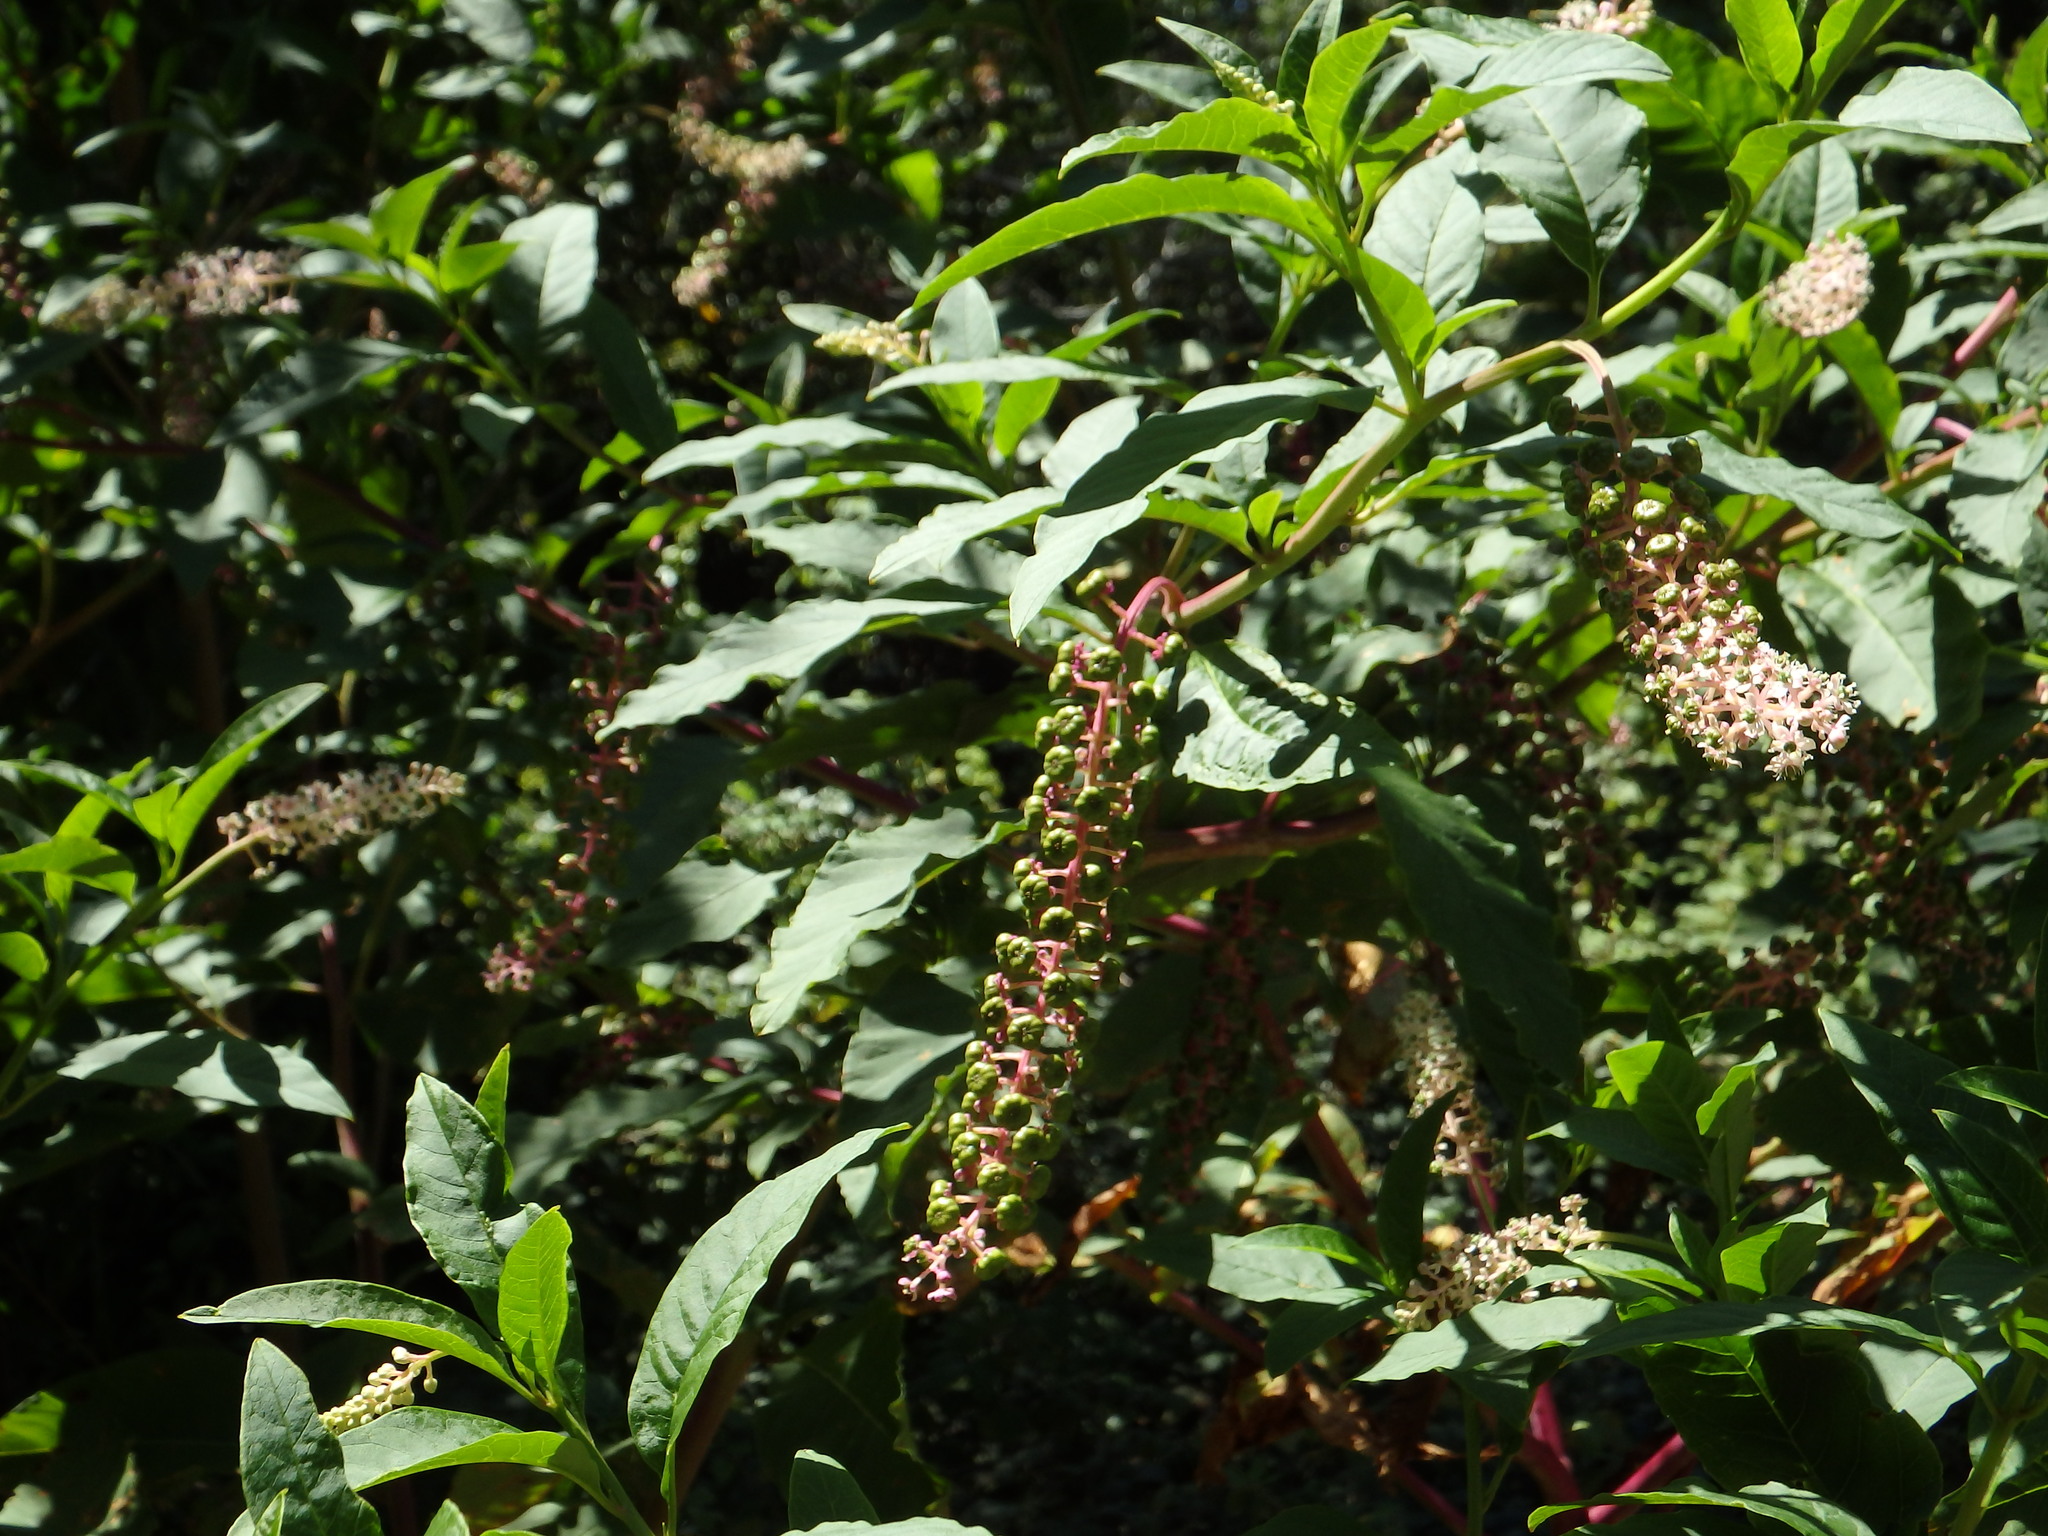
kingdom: Plantae
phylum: Tracheophyta
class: Magnoliopsida
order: Caryophyllales
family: Phytolaccaceae
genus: Phytolacca
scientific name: Phytolacca americana
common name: American pokeweed
